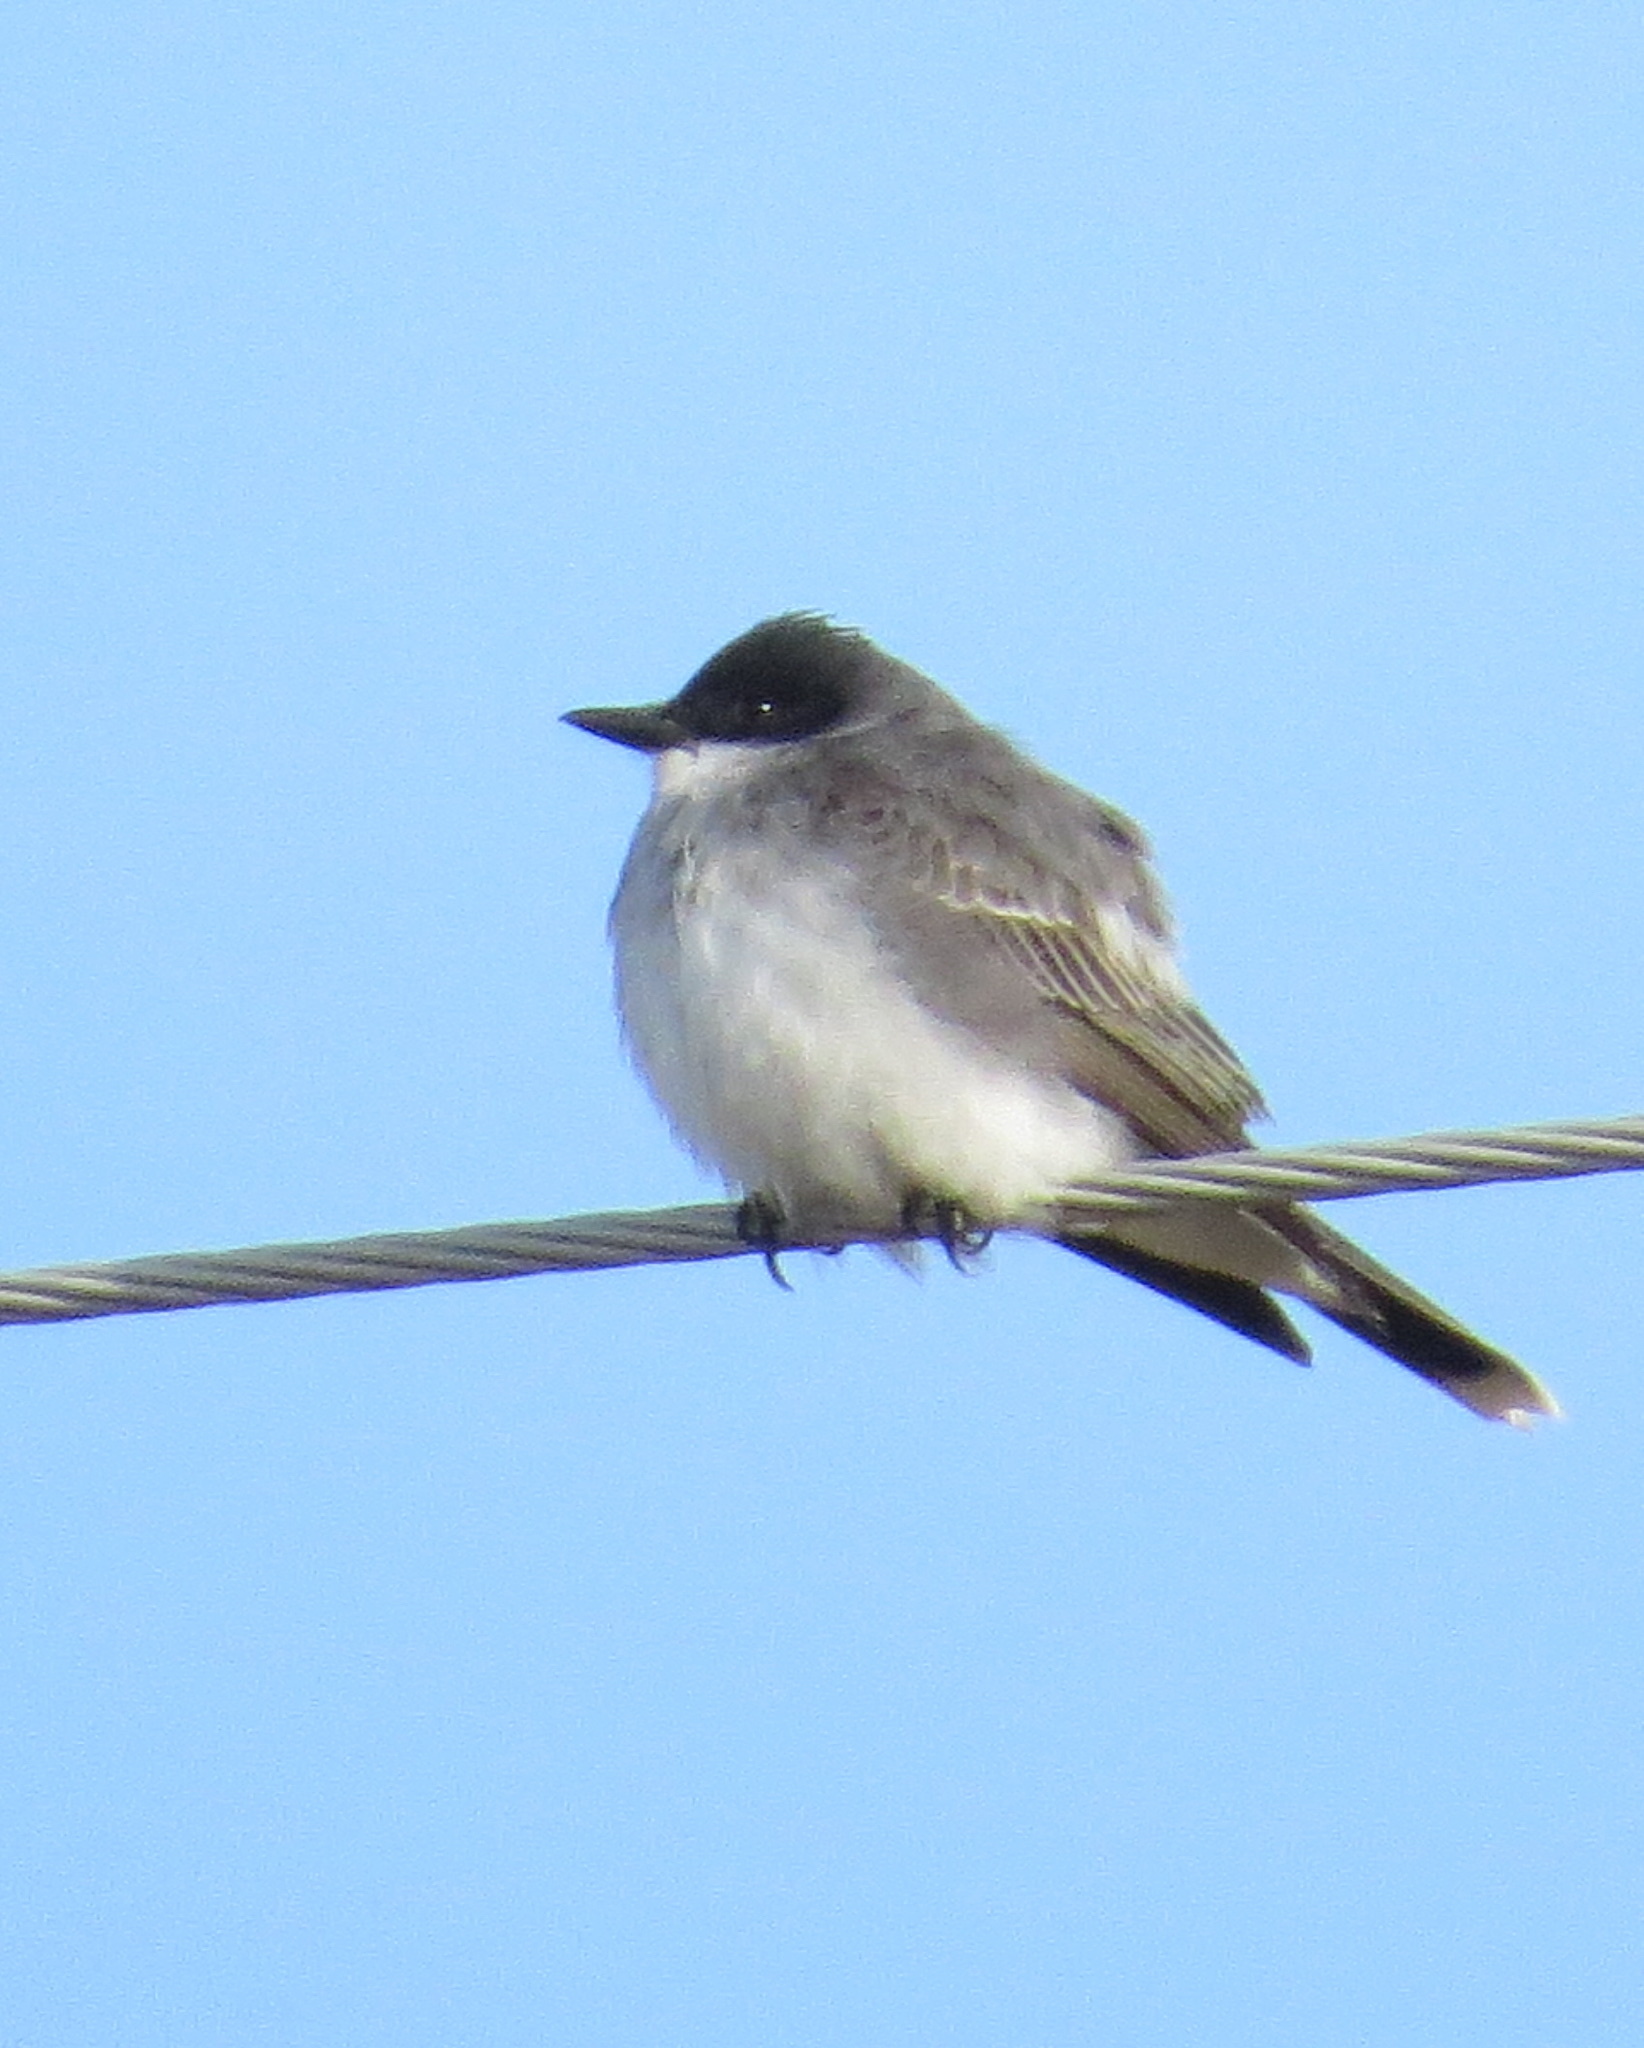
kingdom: Animalia
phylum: Chordata
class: Aves
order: Passeriformes
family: Tyrannidae
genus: Tyrannus
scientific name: Tyrannus tyrannus
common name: Eastern kingbird
